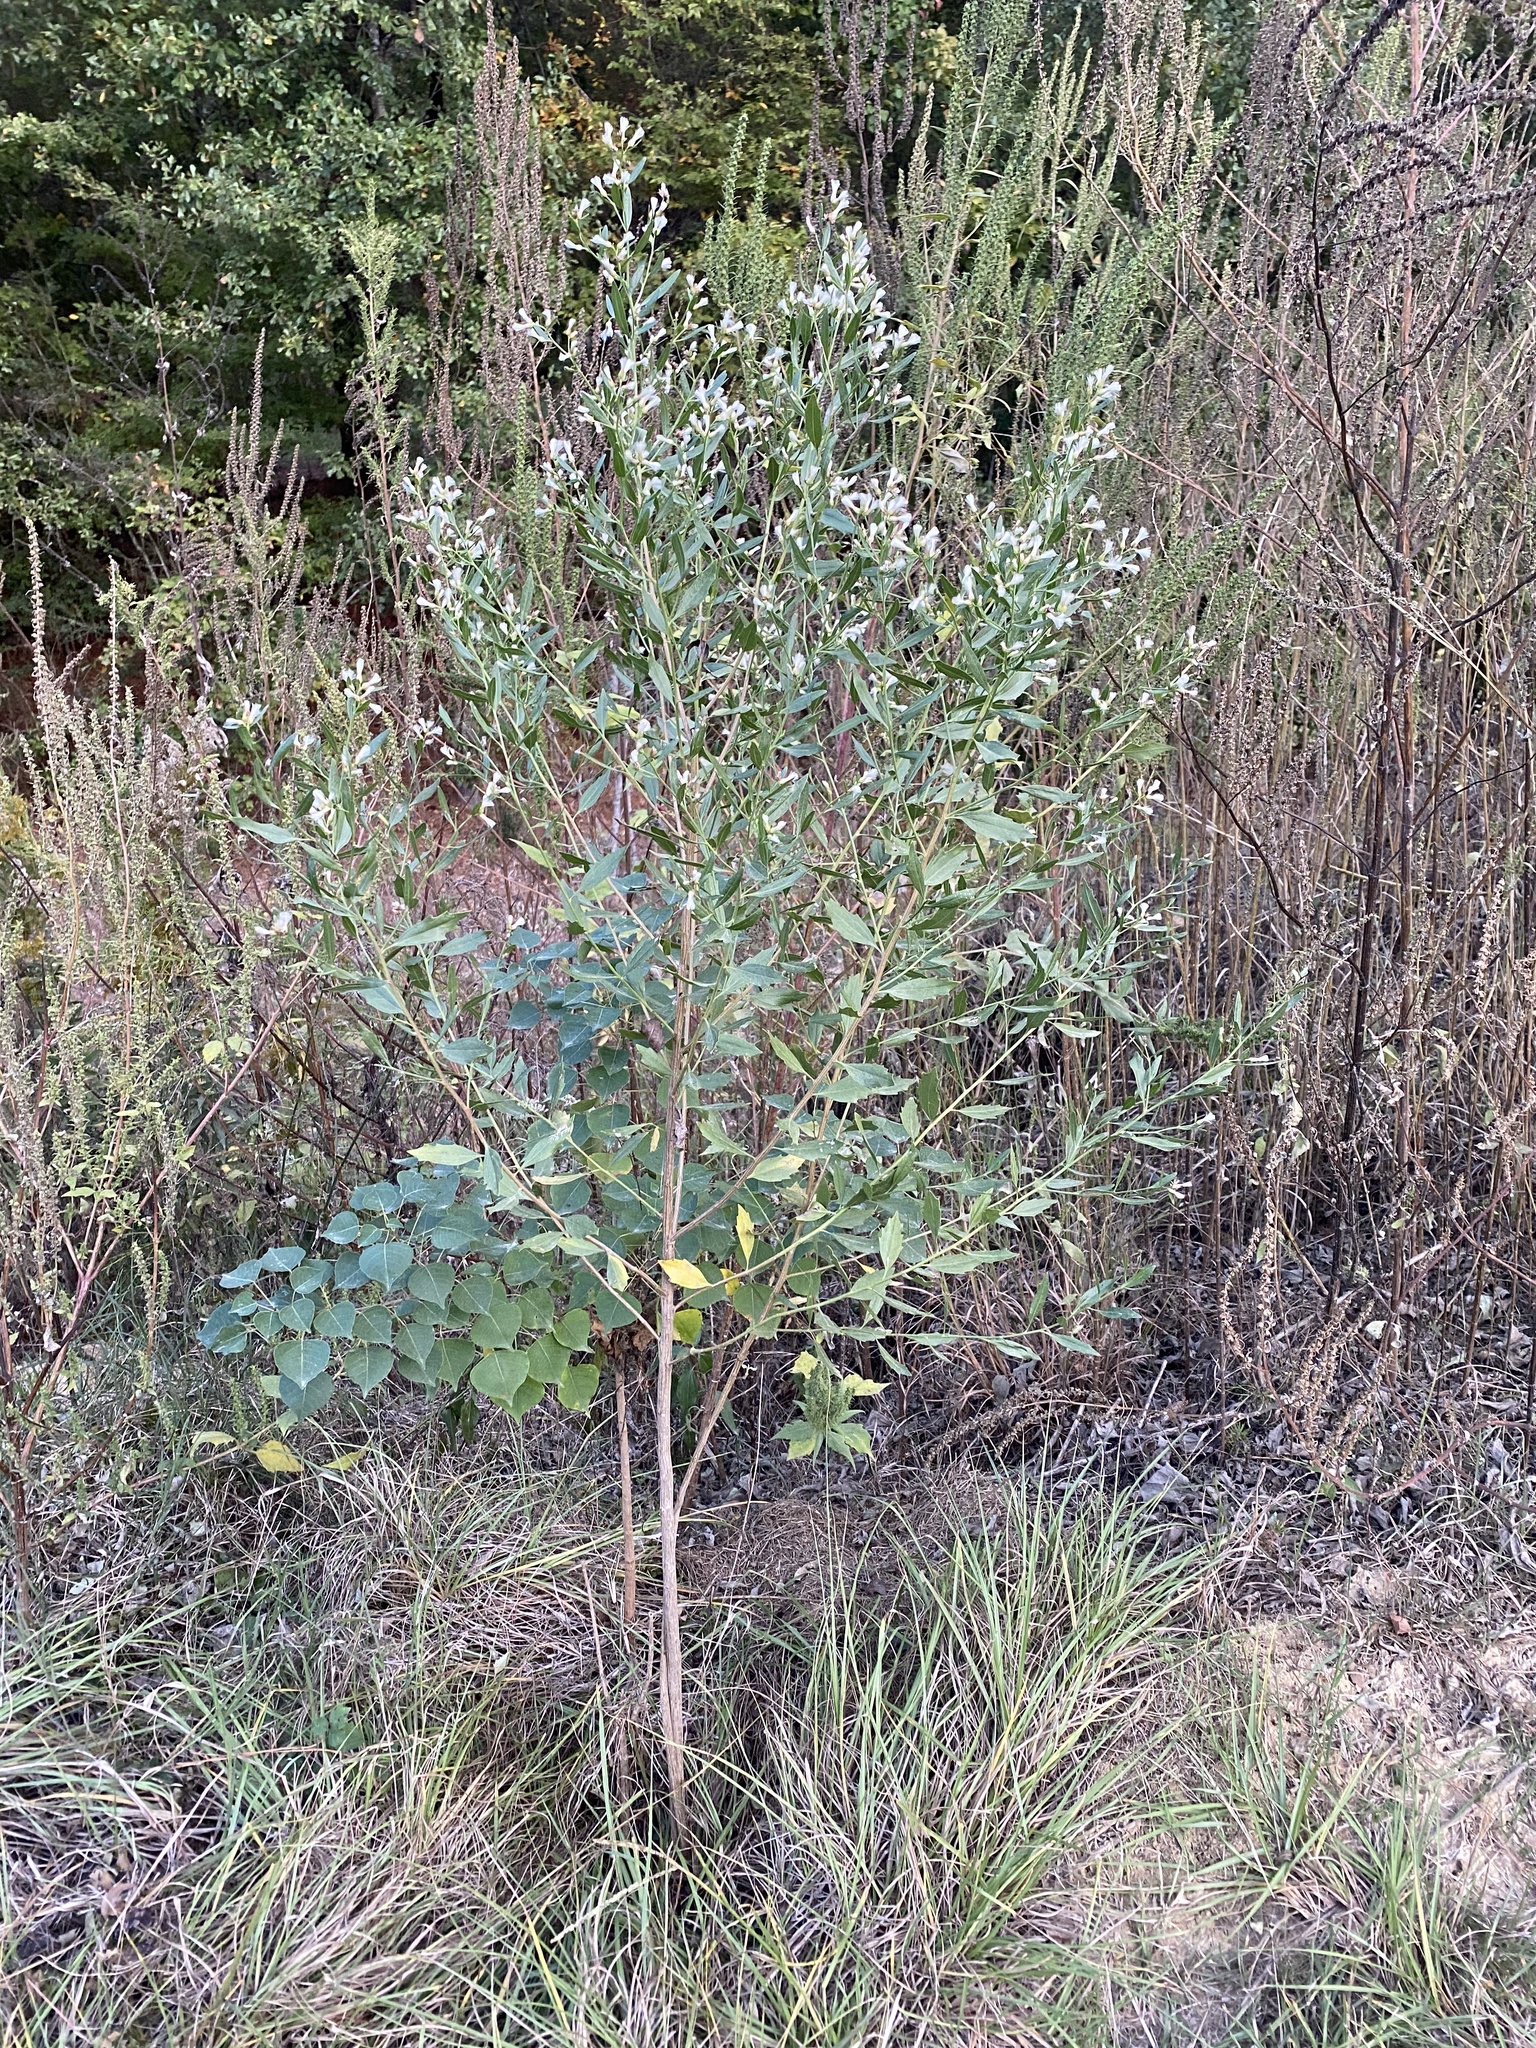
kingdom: Plantae
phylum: Tracheophyta
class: Magnoliopsida
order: Asterales
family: Asteraceae
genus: Baccharis
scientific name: Baccharis halimifolia
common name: Eastern baccharis
